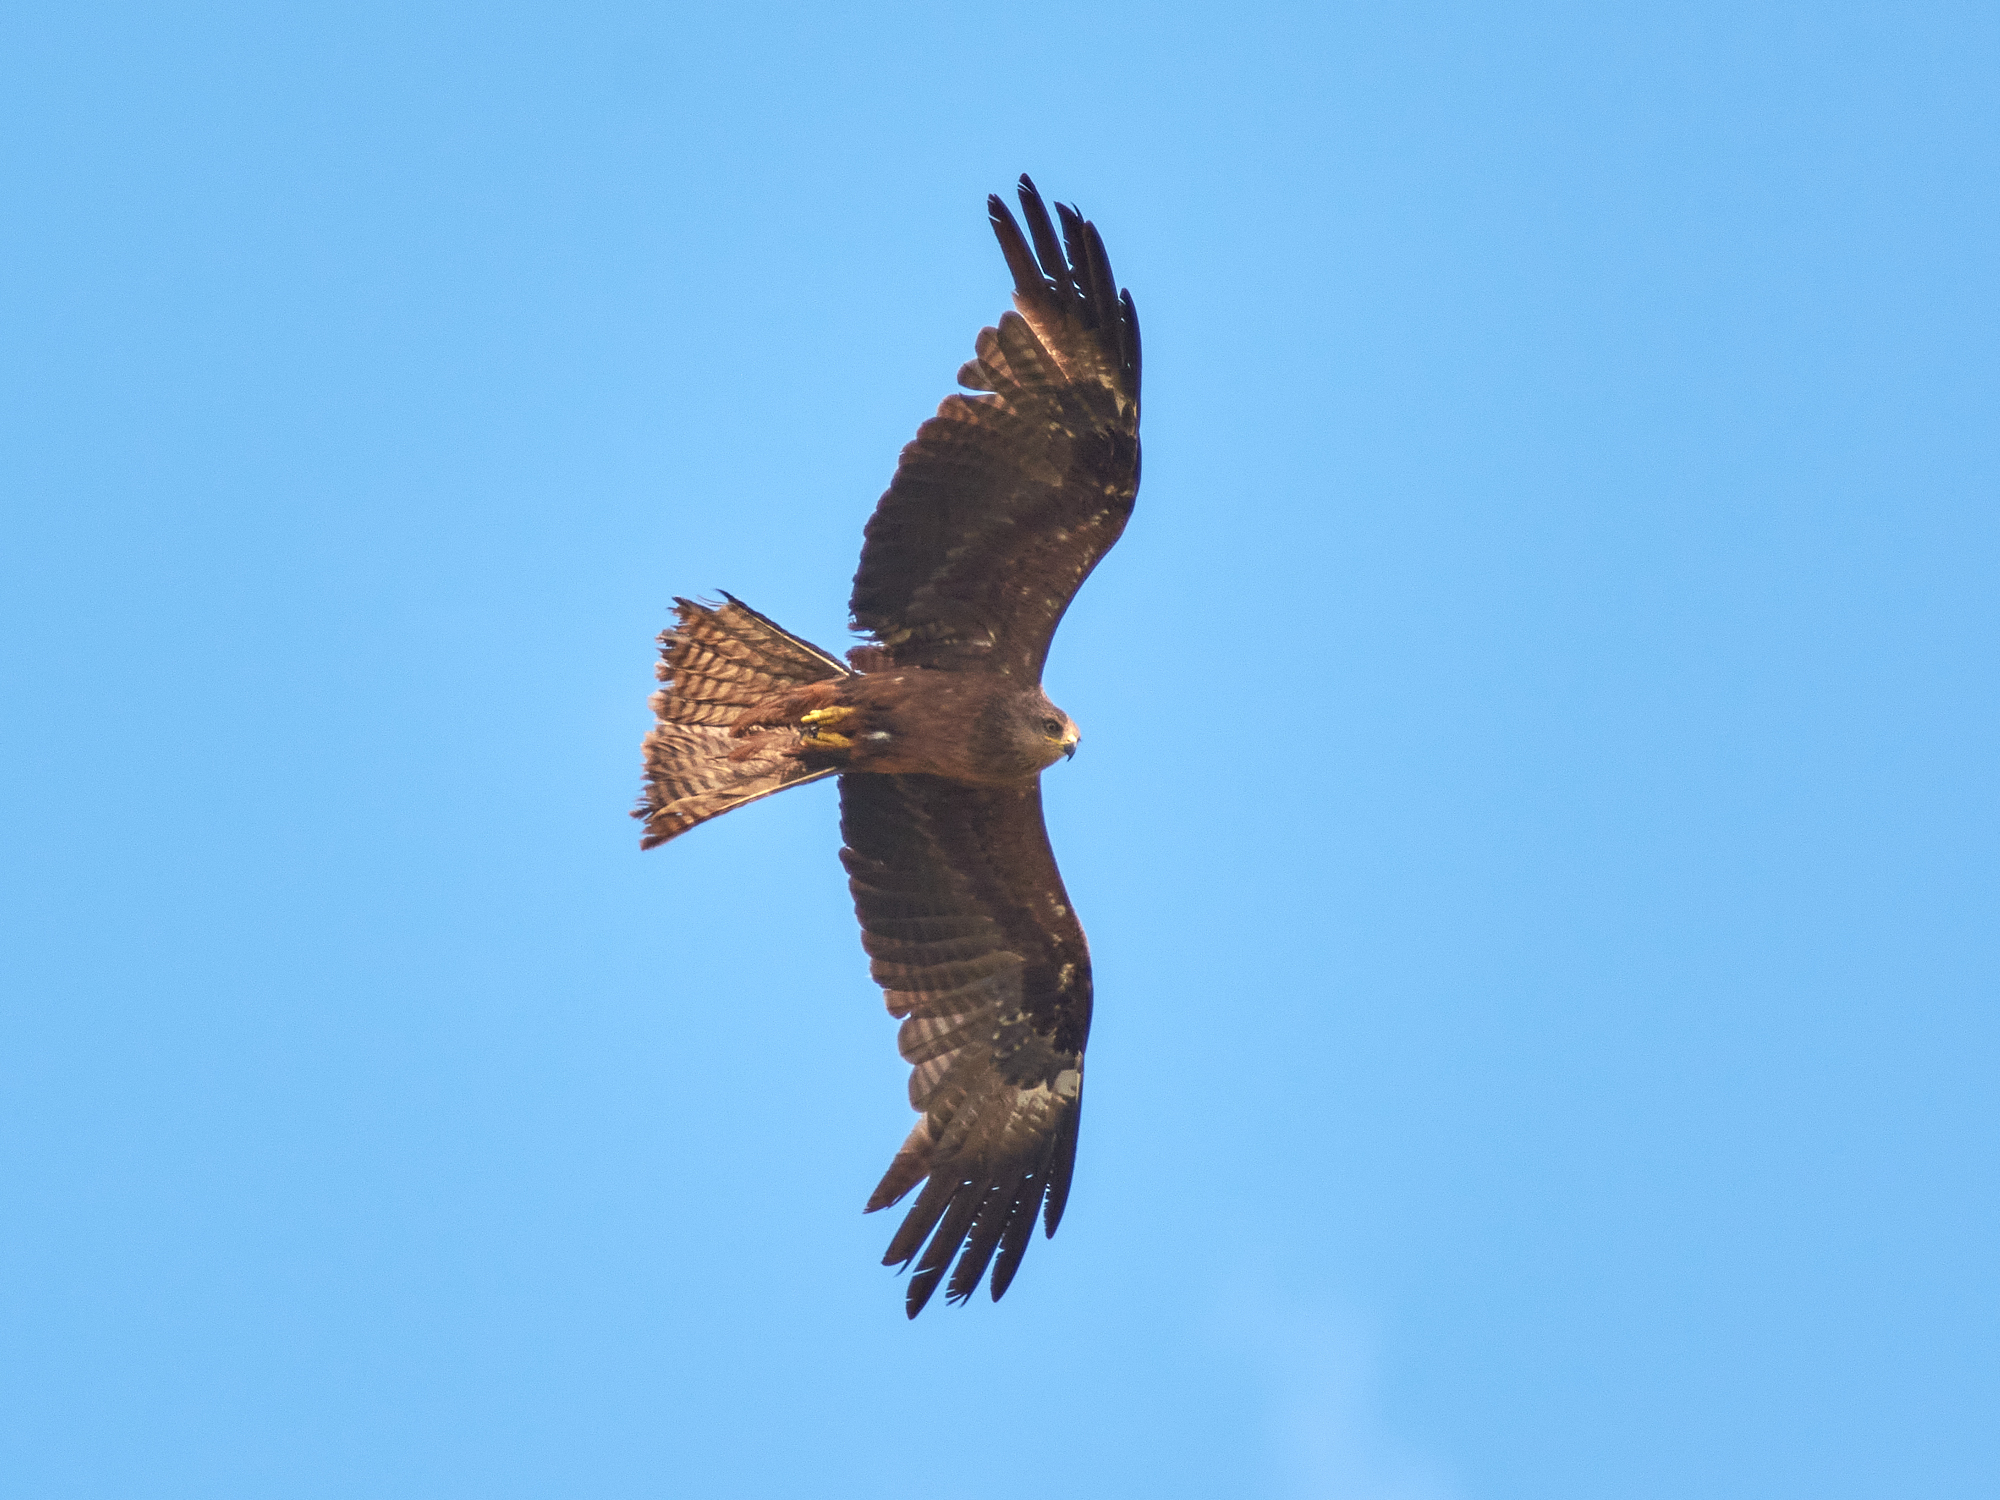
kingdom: Animalia
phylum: Chordata
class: Aves
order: Accipitriformes
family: Accipitridae
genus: Milvus
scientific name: Milvus migrans
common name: Black kite
